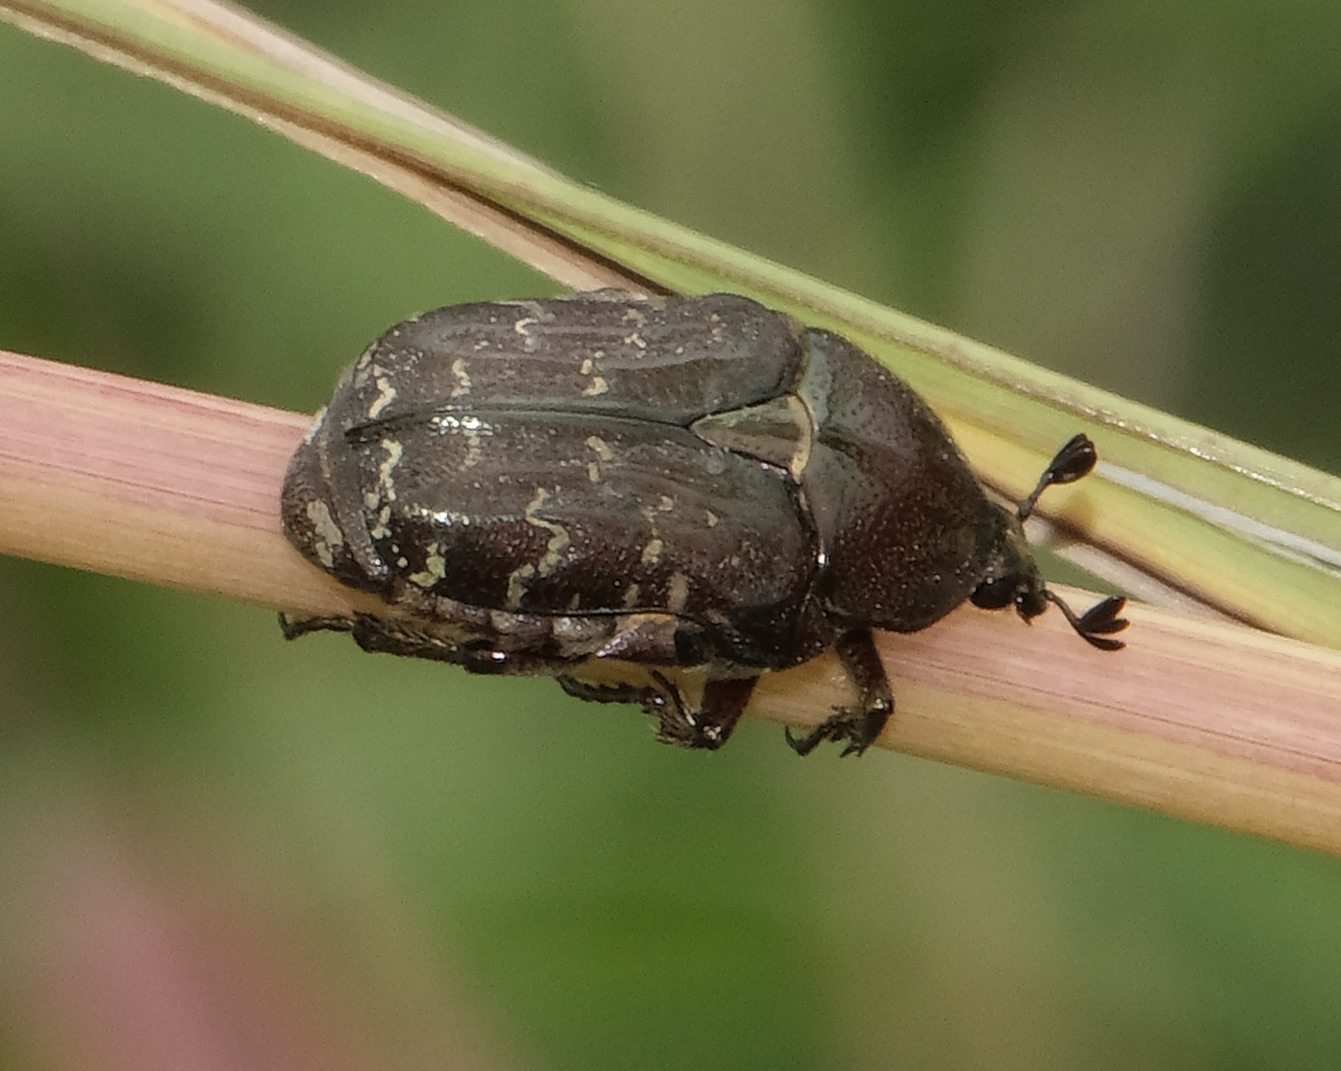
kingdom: Animalia
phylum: Arthropoda
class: Insecta
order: Coleoptera
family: Scarabaeidae
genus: Euphoria
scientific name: Euphoria sepulcralis
